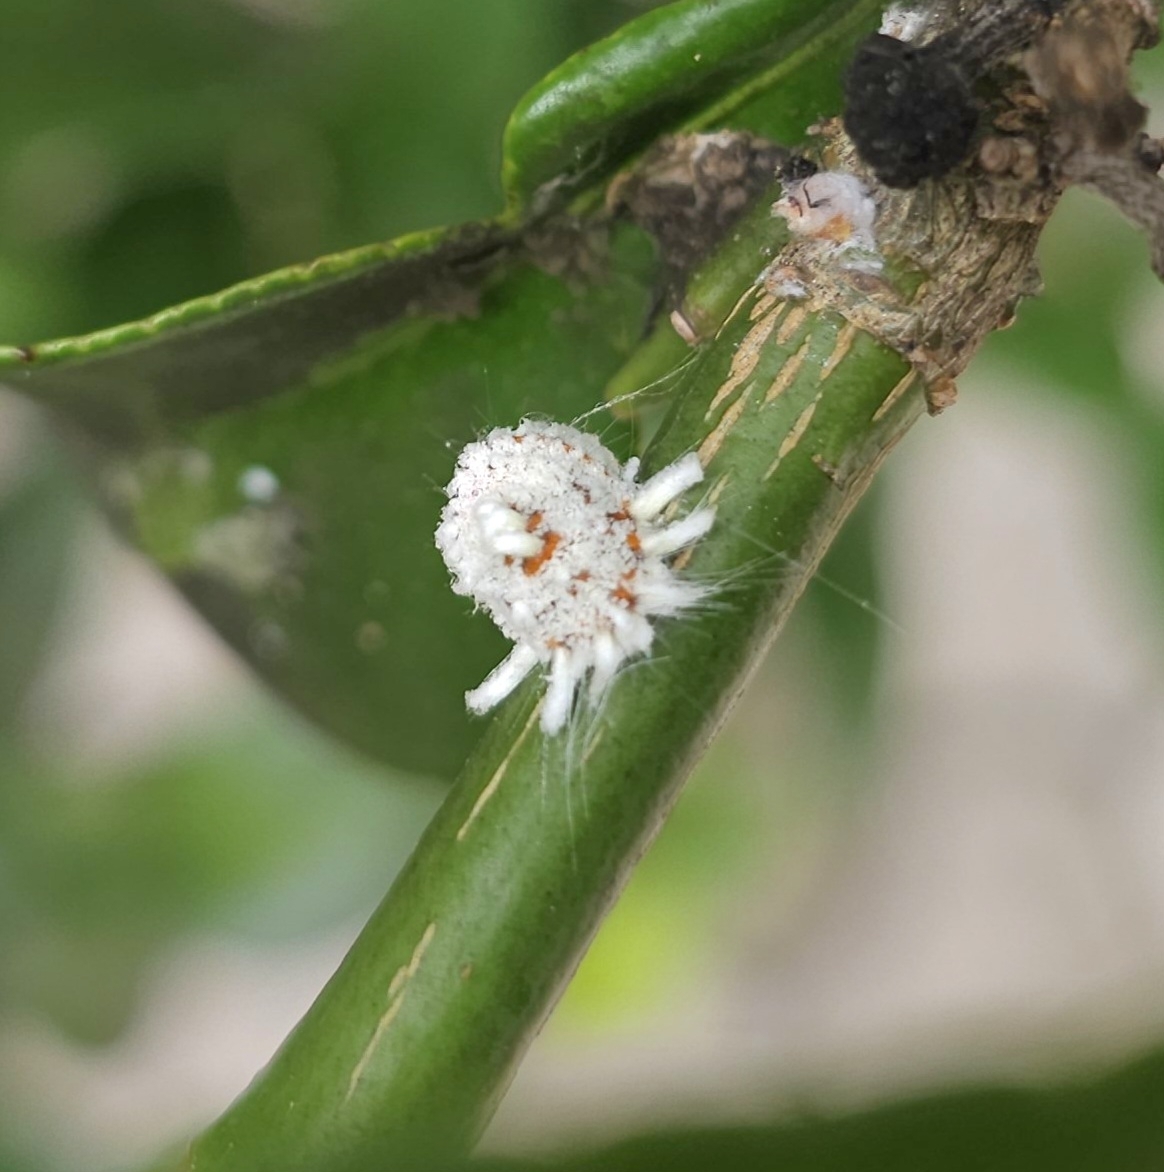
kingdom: Animalia
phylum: Arthropoda
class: Insecta
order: Hemiptera
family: Margarodidae
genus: Icerya
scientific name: Icerya purchasi
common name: Cottony cushion scale
